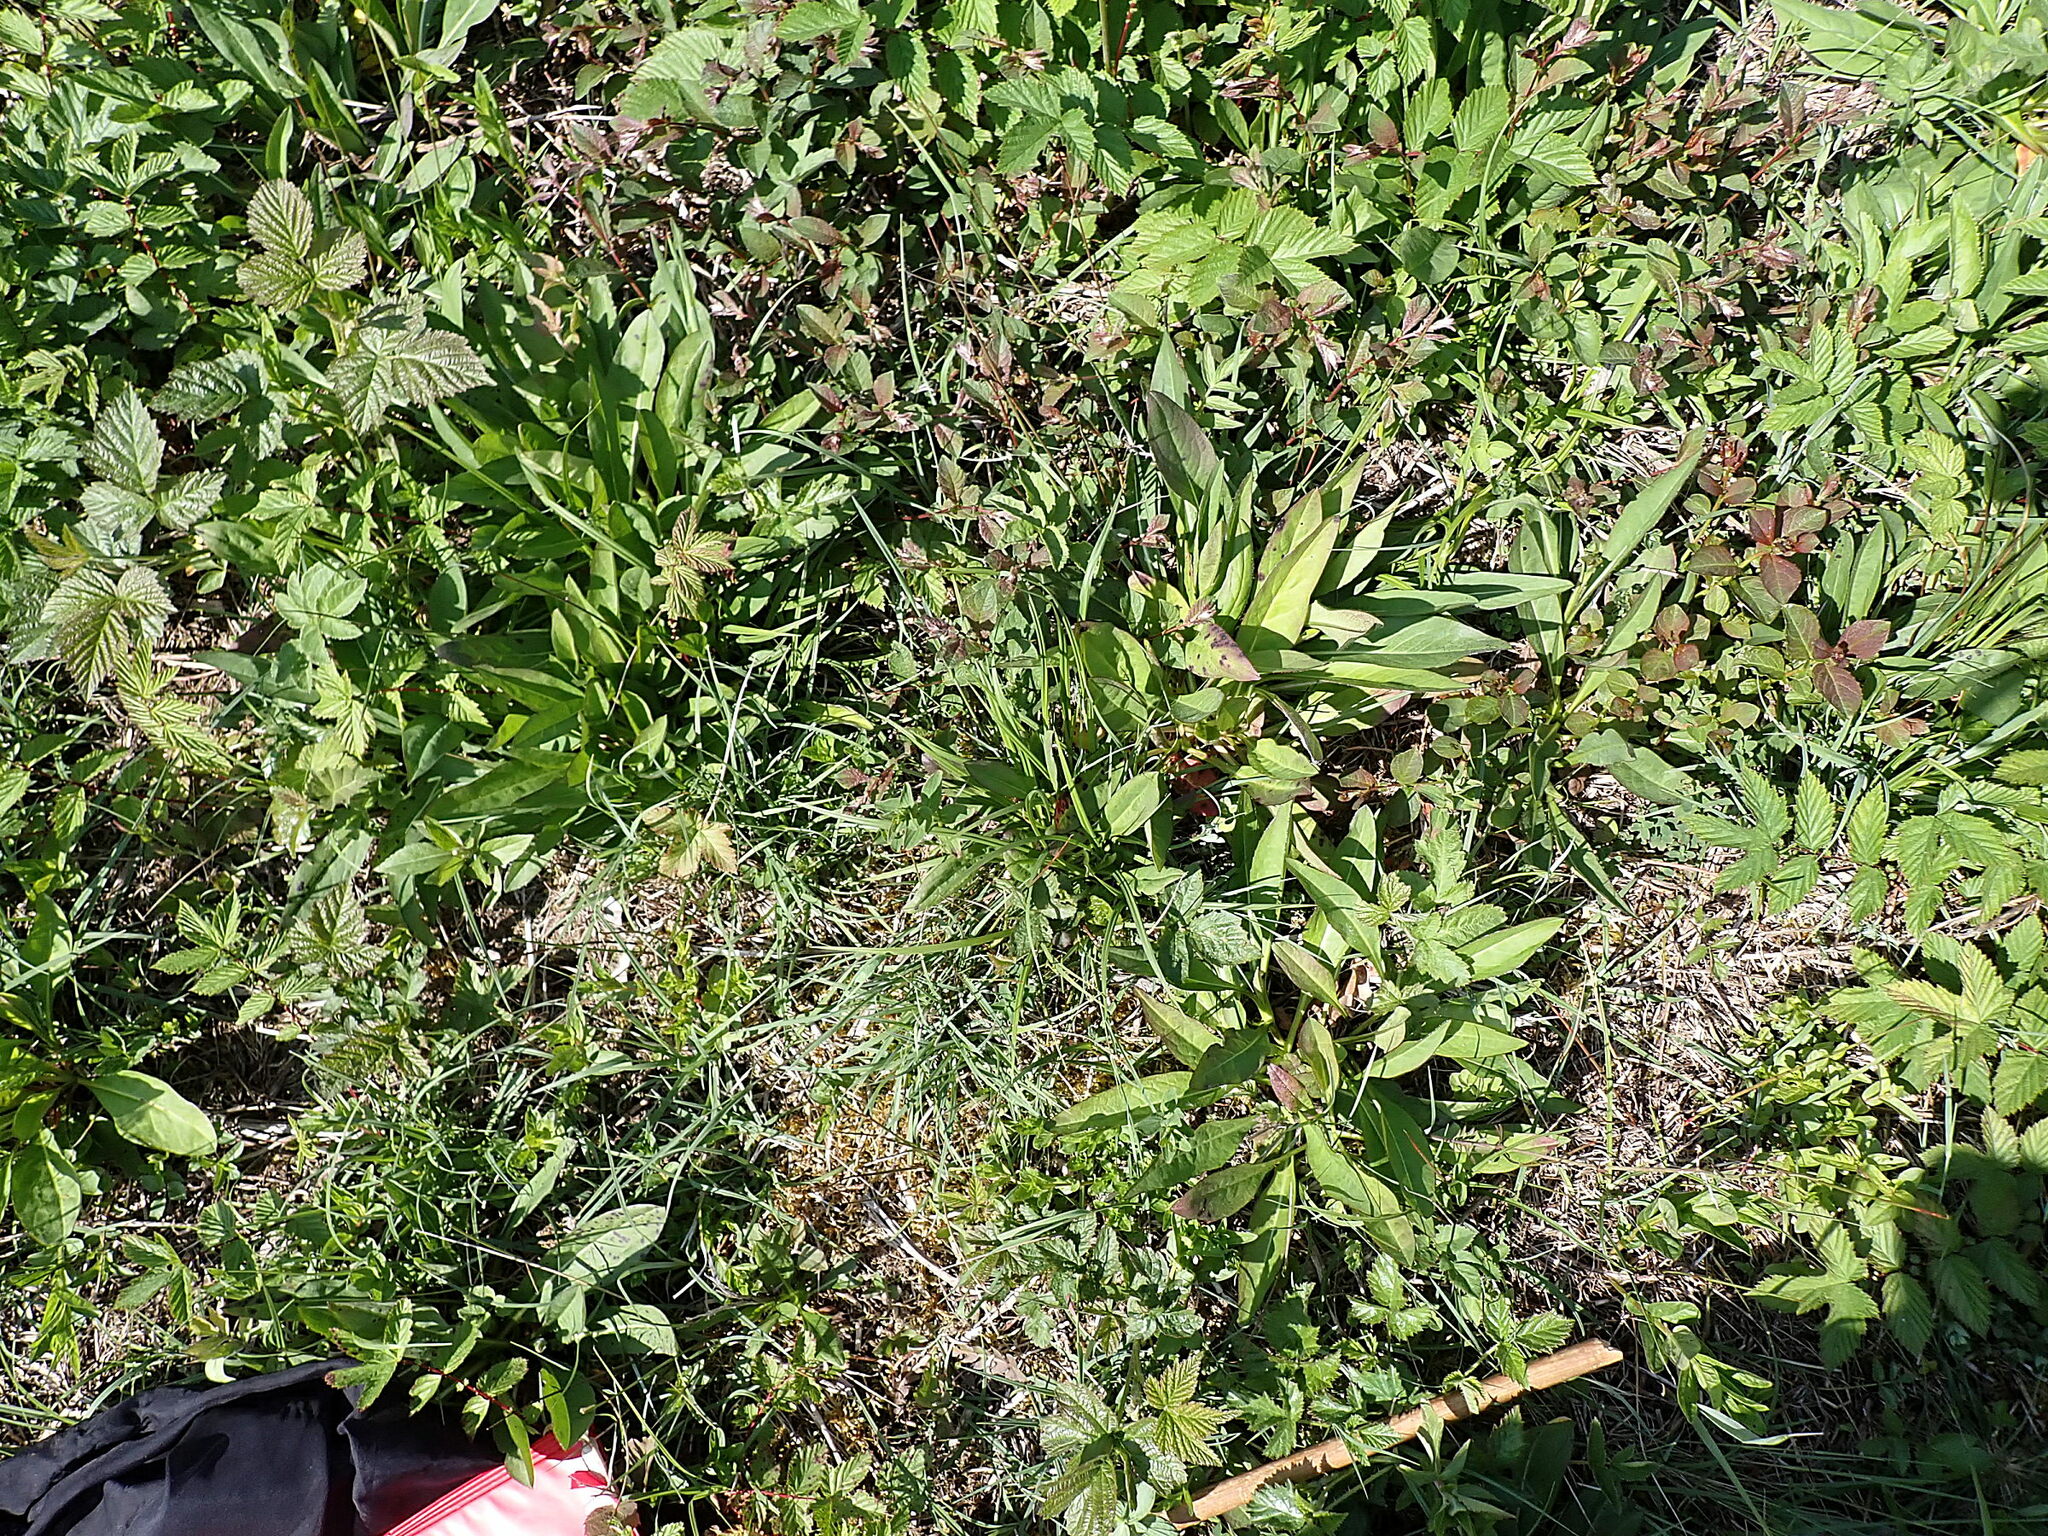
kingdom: Plantae
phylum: Tracheophyta
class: Magnoliopsida
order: Dipsacales
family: Caprifoliaceae
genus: Succisa
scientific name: Succisa pratensis
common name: Devil's-bit
